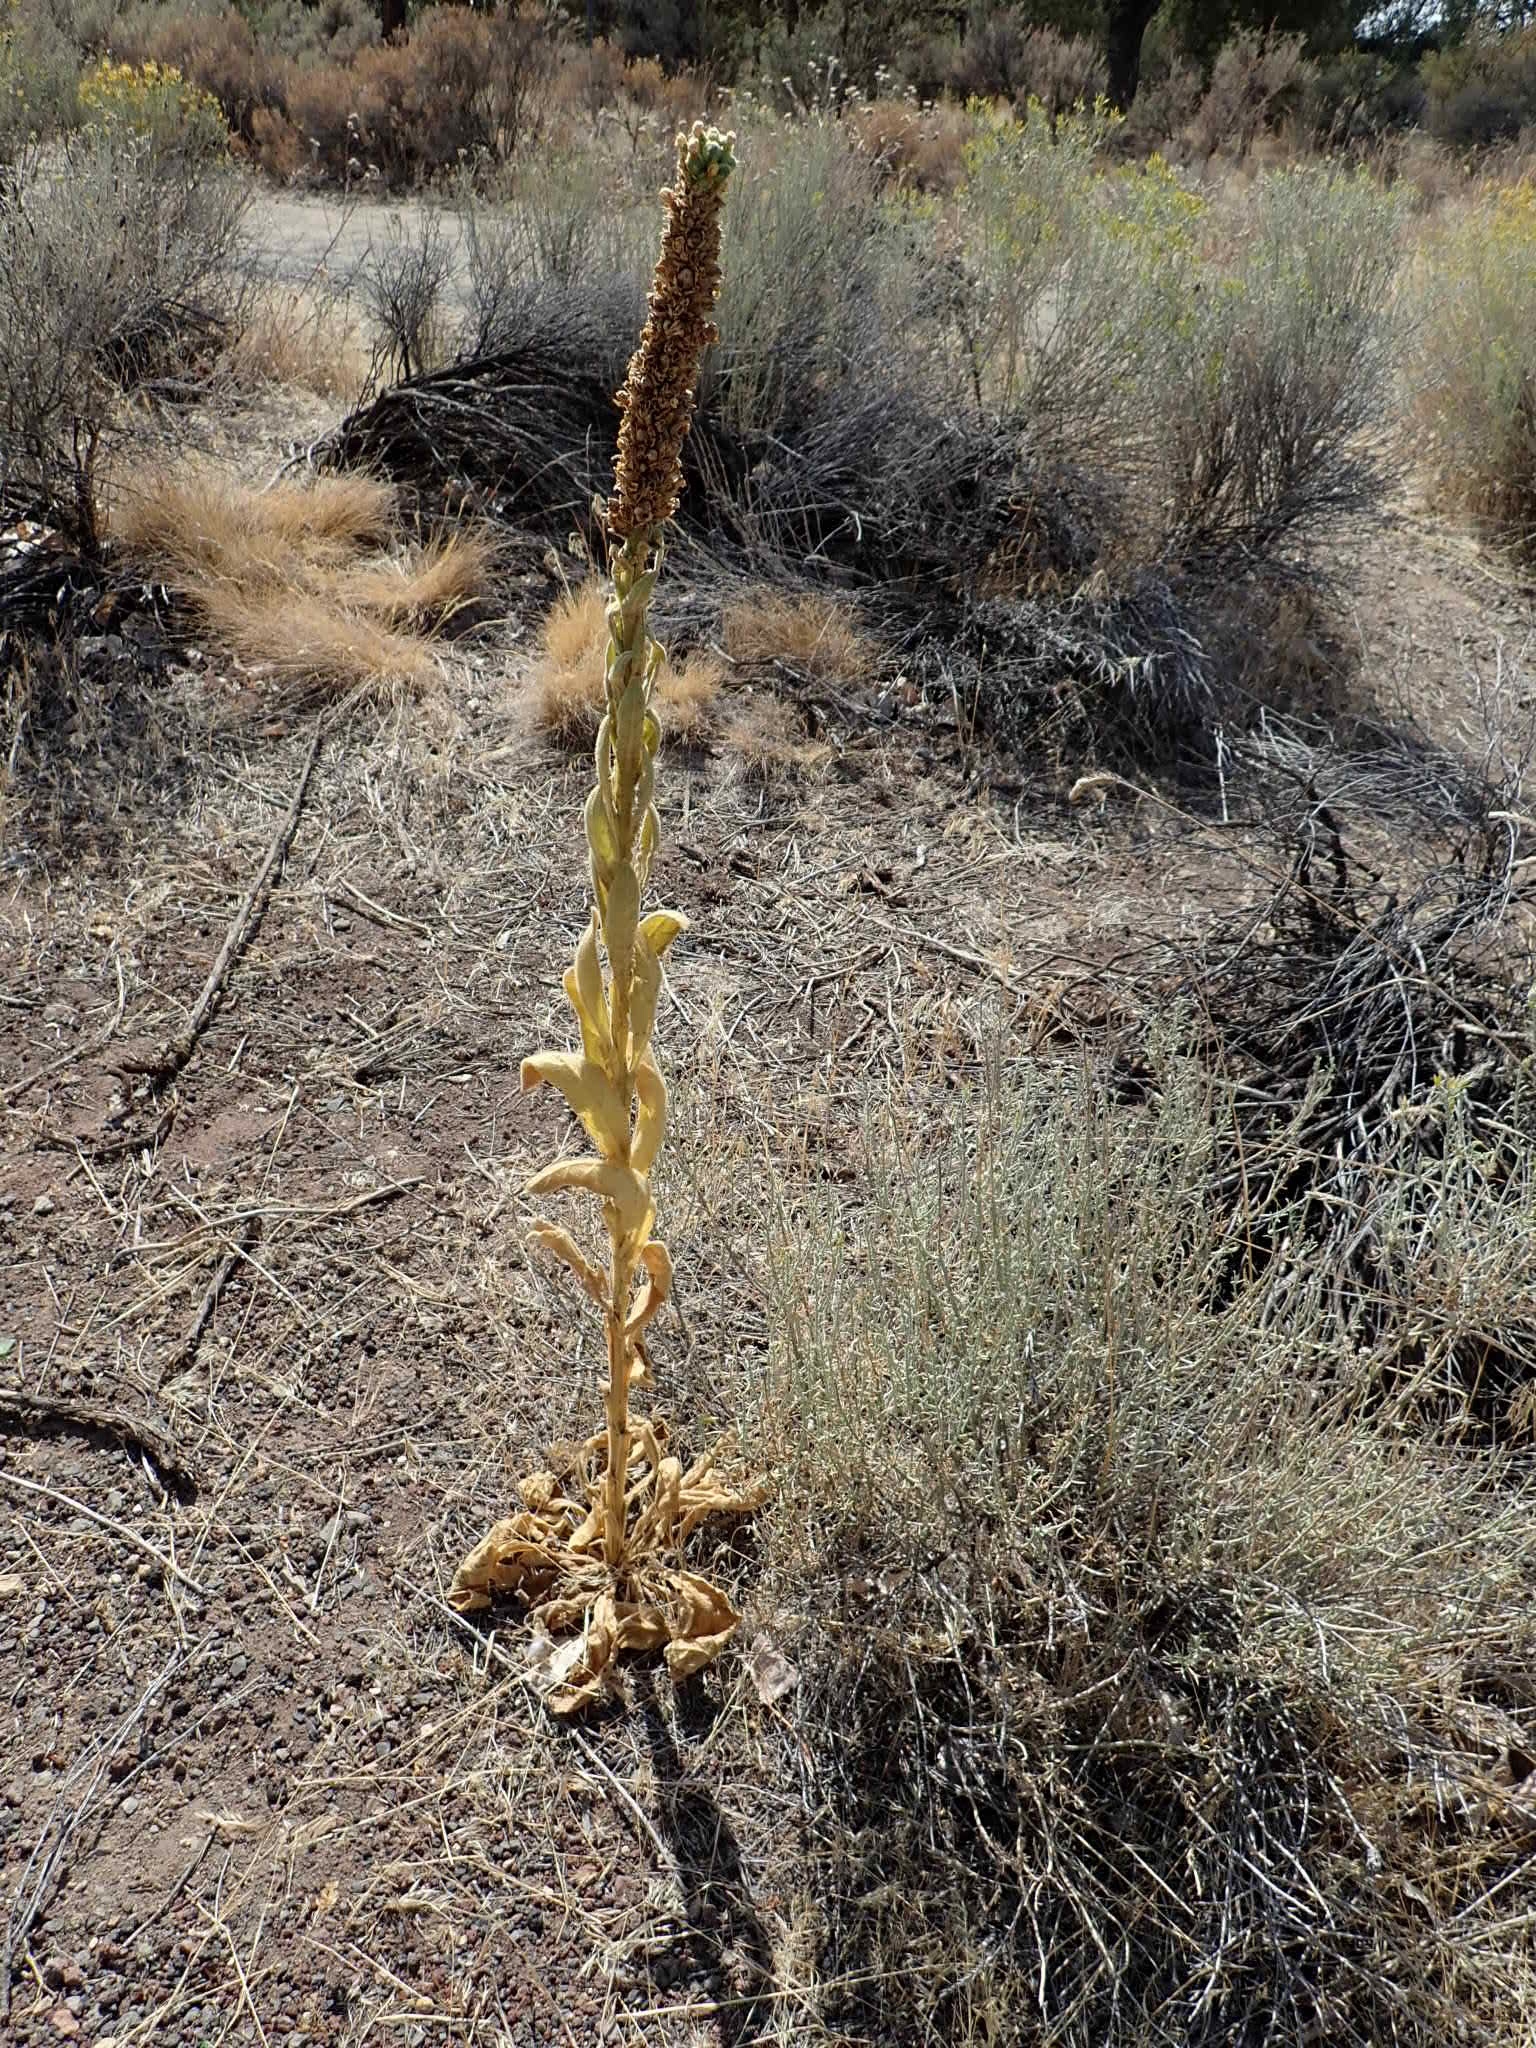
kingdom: Plantae
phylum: Tracheophyta
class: Magnoliopsida
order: Lamiales
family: Scrophulariaceae
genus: Verbascum
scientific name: Verbascum thapsus
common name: Common mullein
